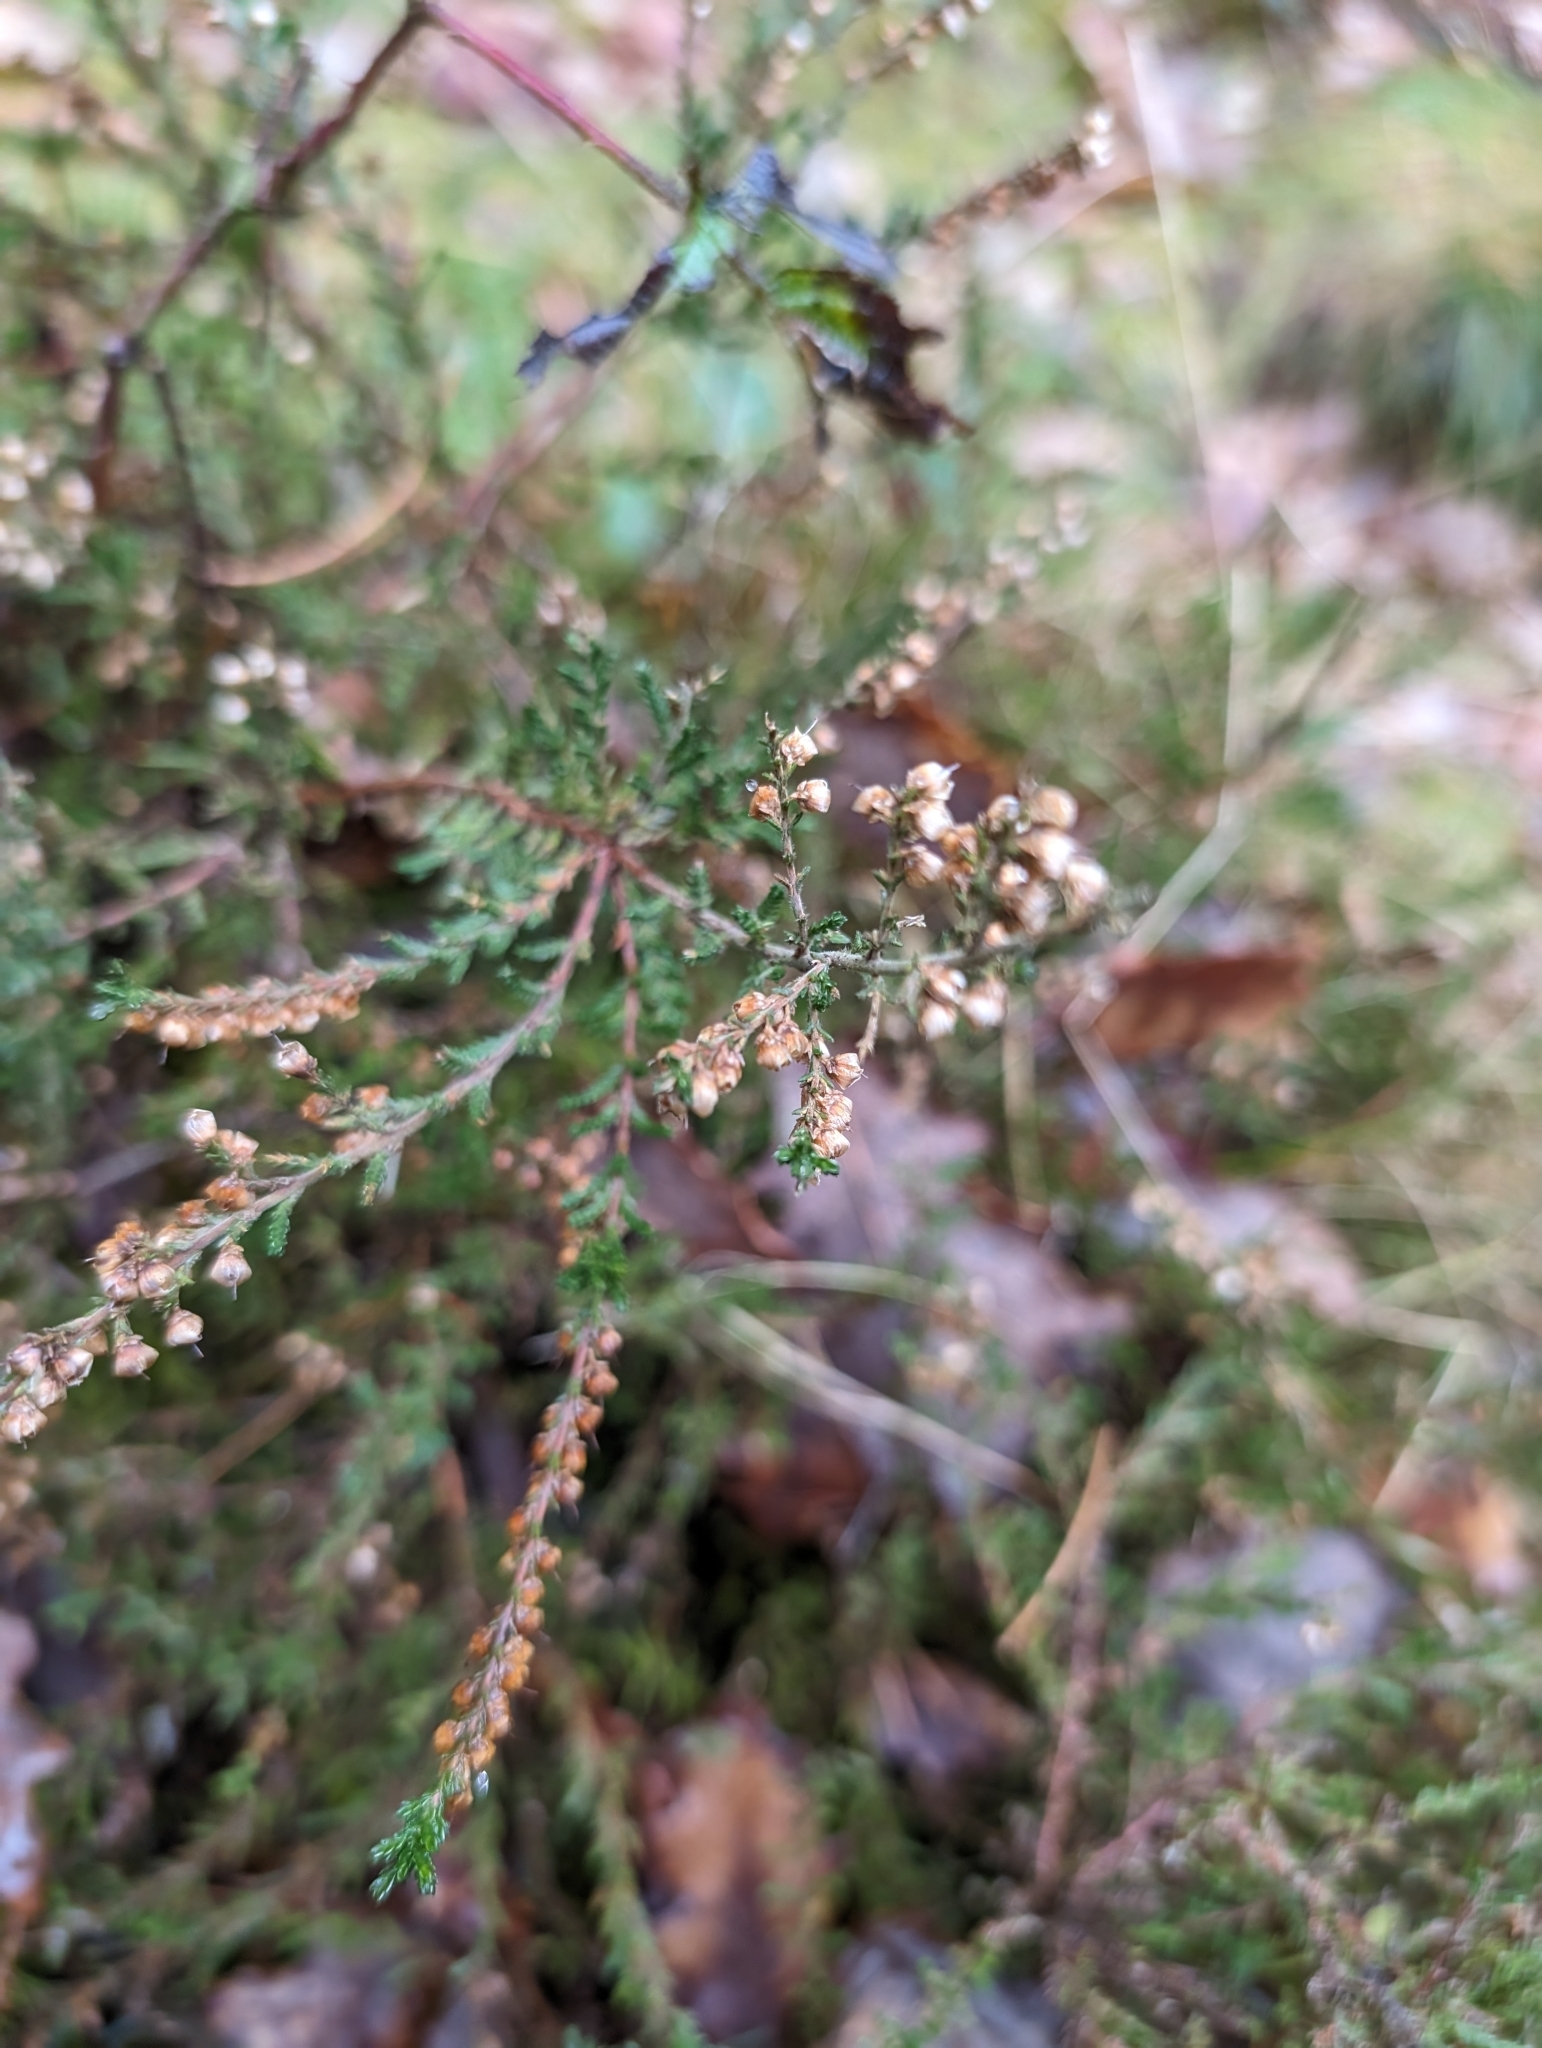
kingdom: Plantae
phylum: Tracheophyta
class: Magnoliopsida
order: Ericales
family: Ericaceae
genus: Calluna
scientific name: Calluna vulgaris
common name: Heather
